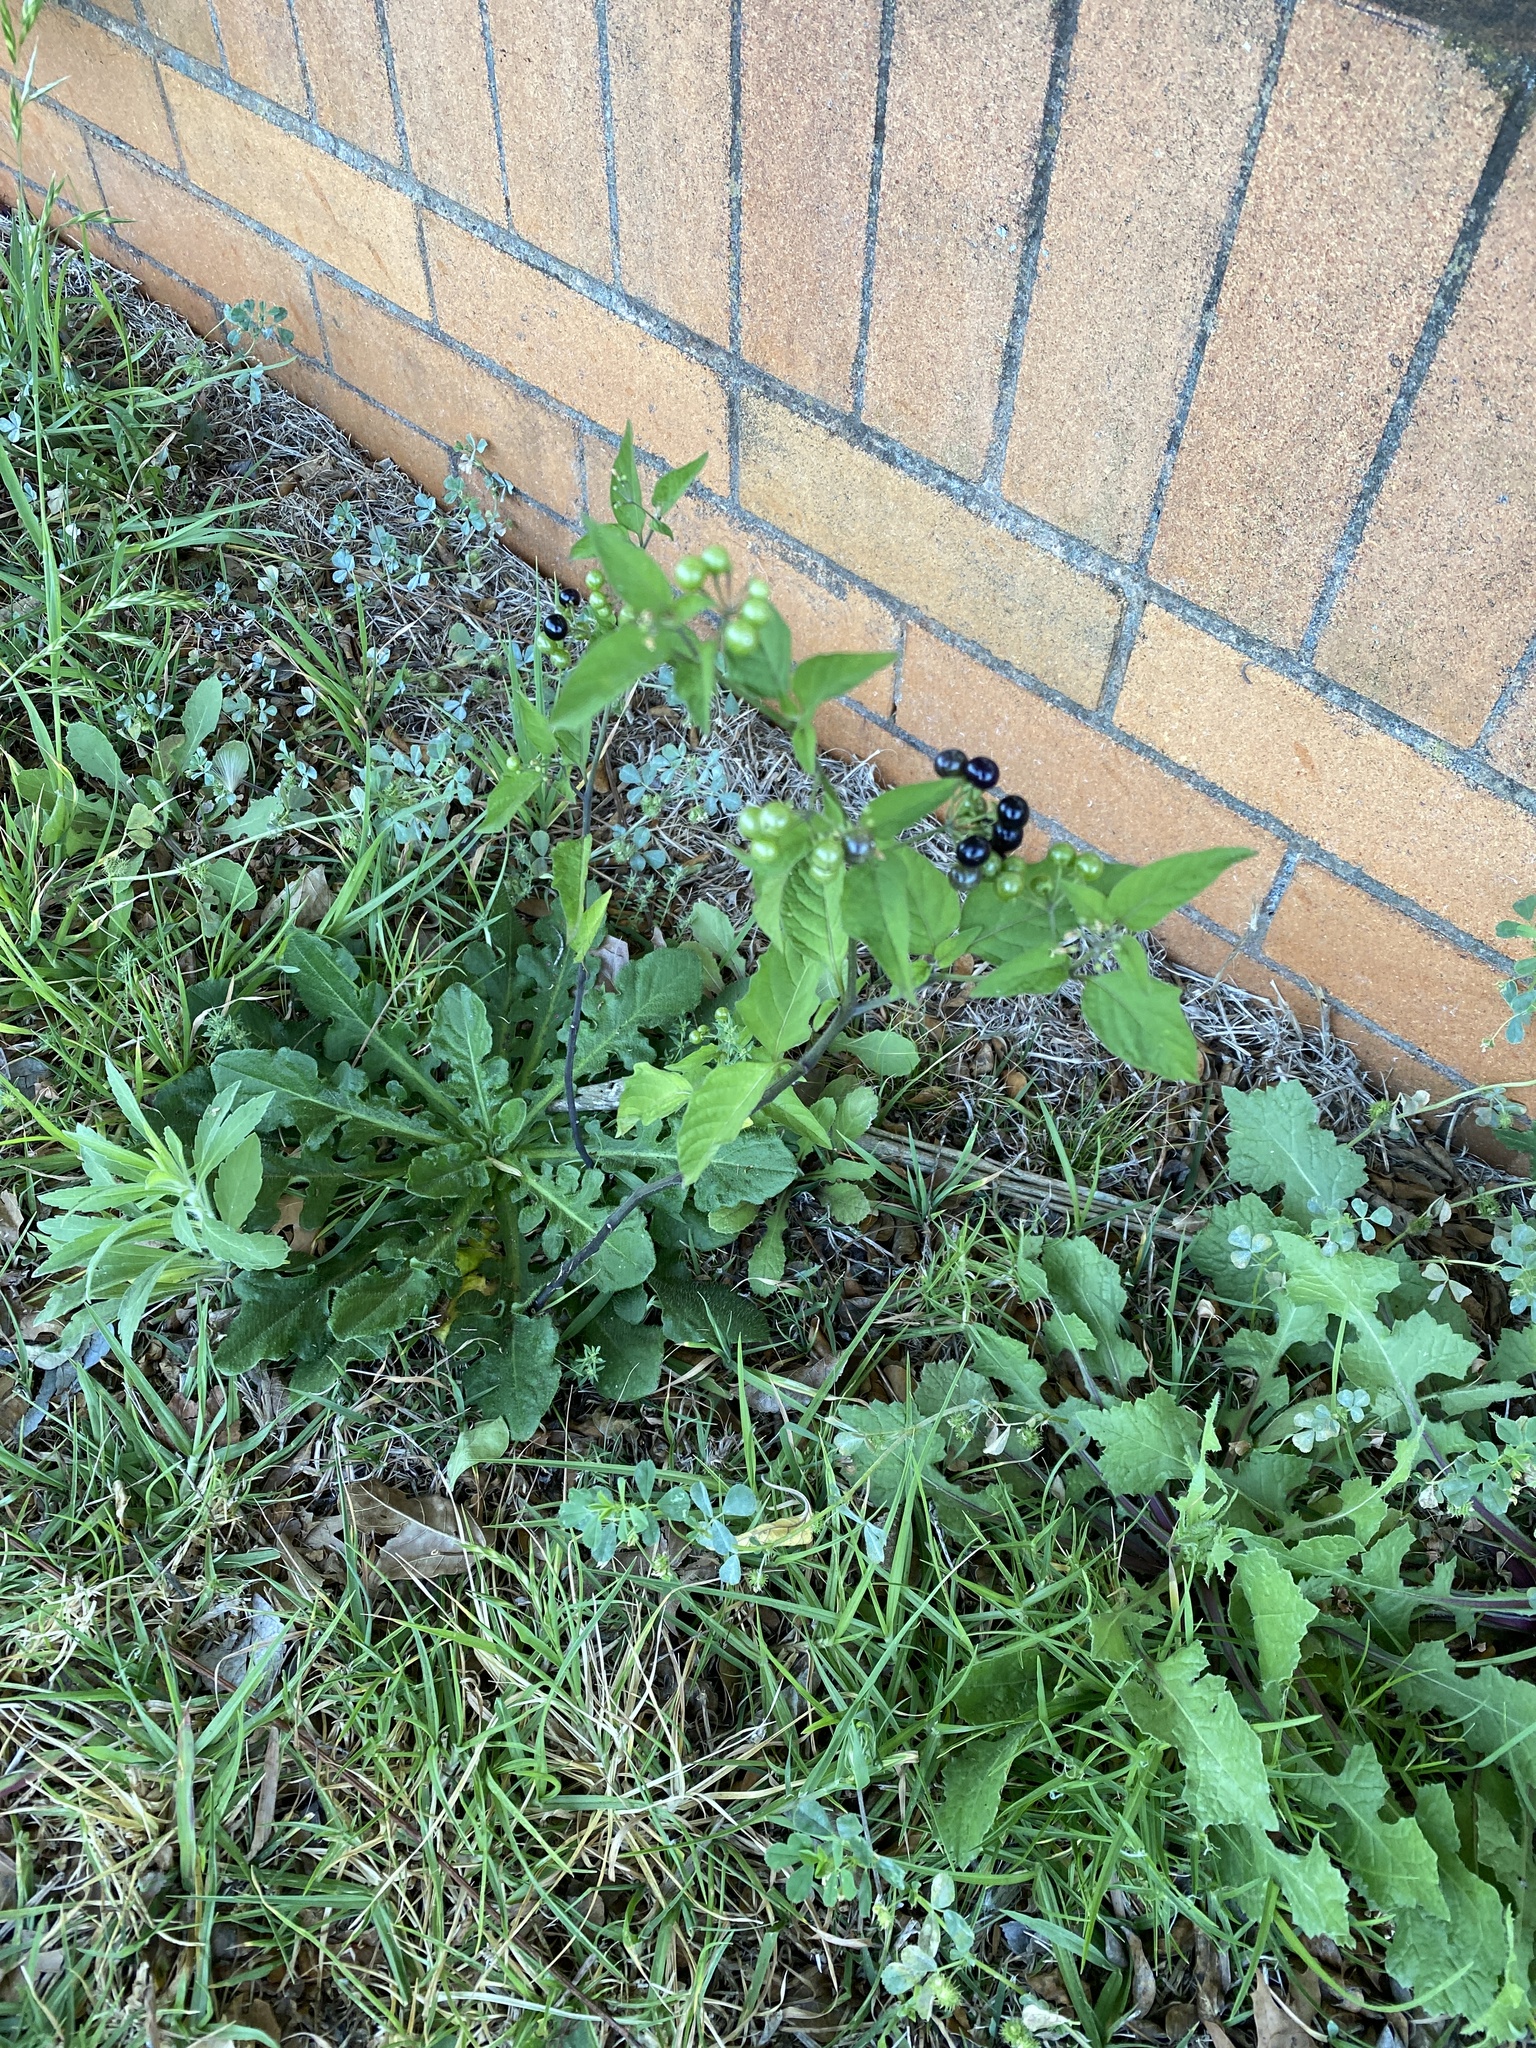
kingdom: Plantae
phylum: Tracheophyta
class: Magnoliopsida
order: Solanales
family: Solanaceae
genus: Solanum
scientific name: Solanum americanum
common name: American black nightshade
